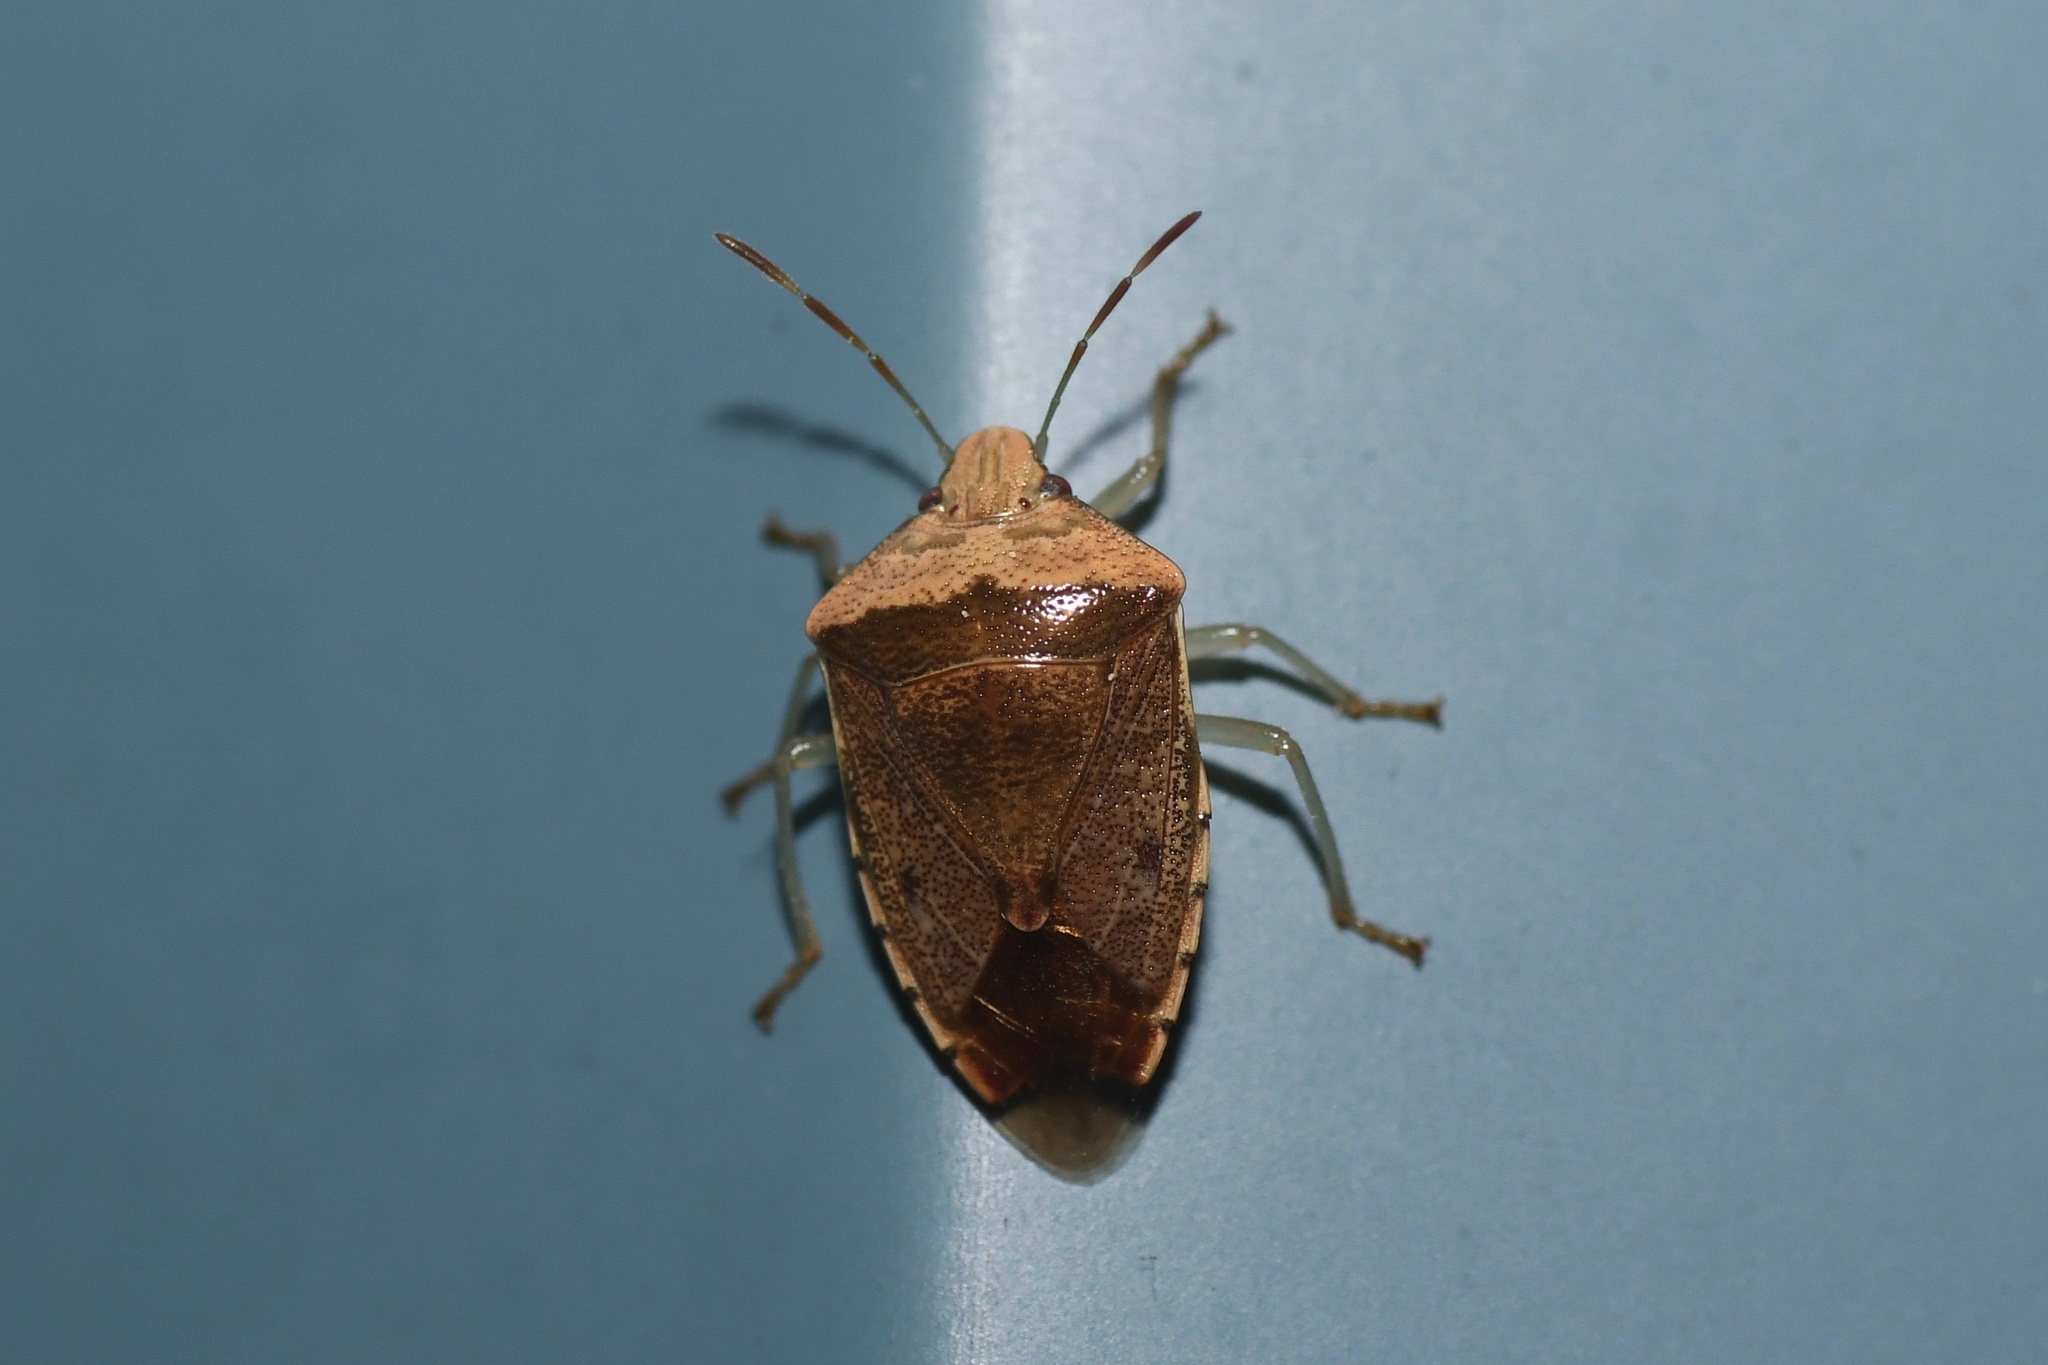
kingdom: Animalia
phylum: Arthropoda
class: Insecta
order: Hemiptera
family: Pentatomidae
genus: Banasa
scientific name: Banasa calva
